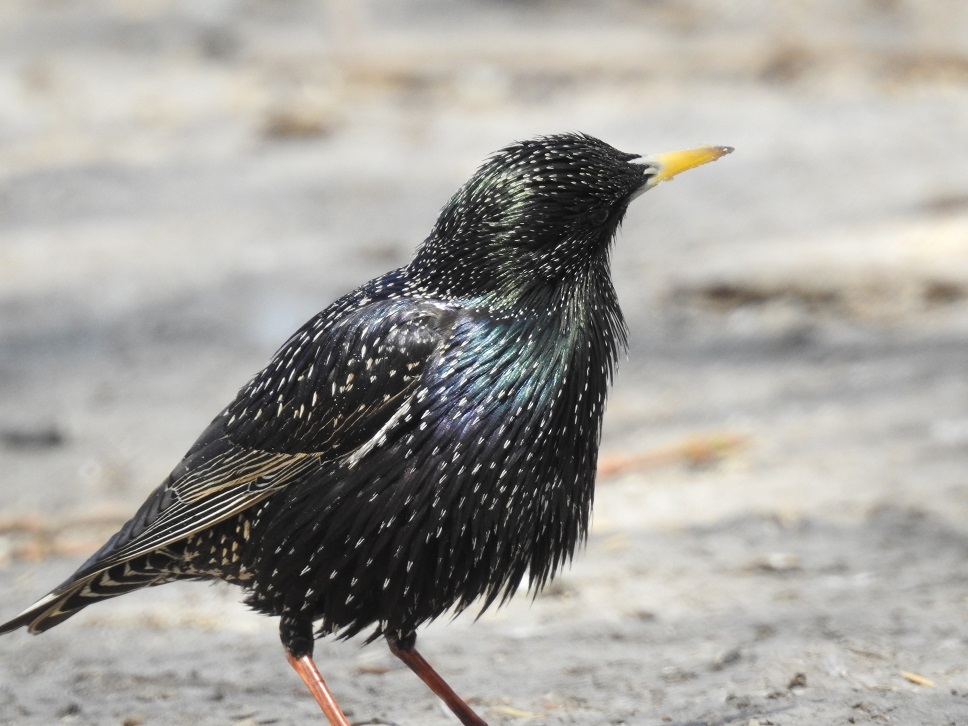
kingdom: Animalia
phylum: Chordata
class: Aves
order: Passeriformes
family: Sturnidae
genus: Sturnus
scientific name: Sturnus vulgaris
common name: Common starling
